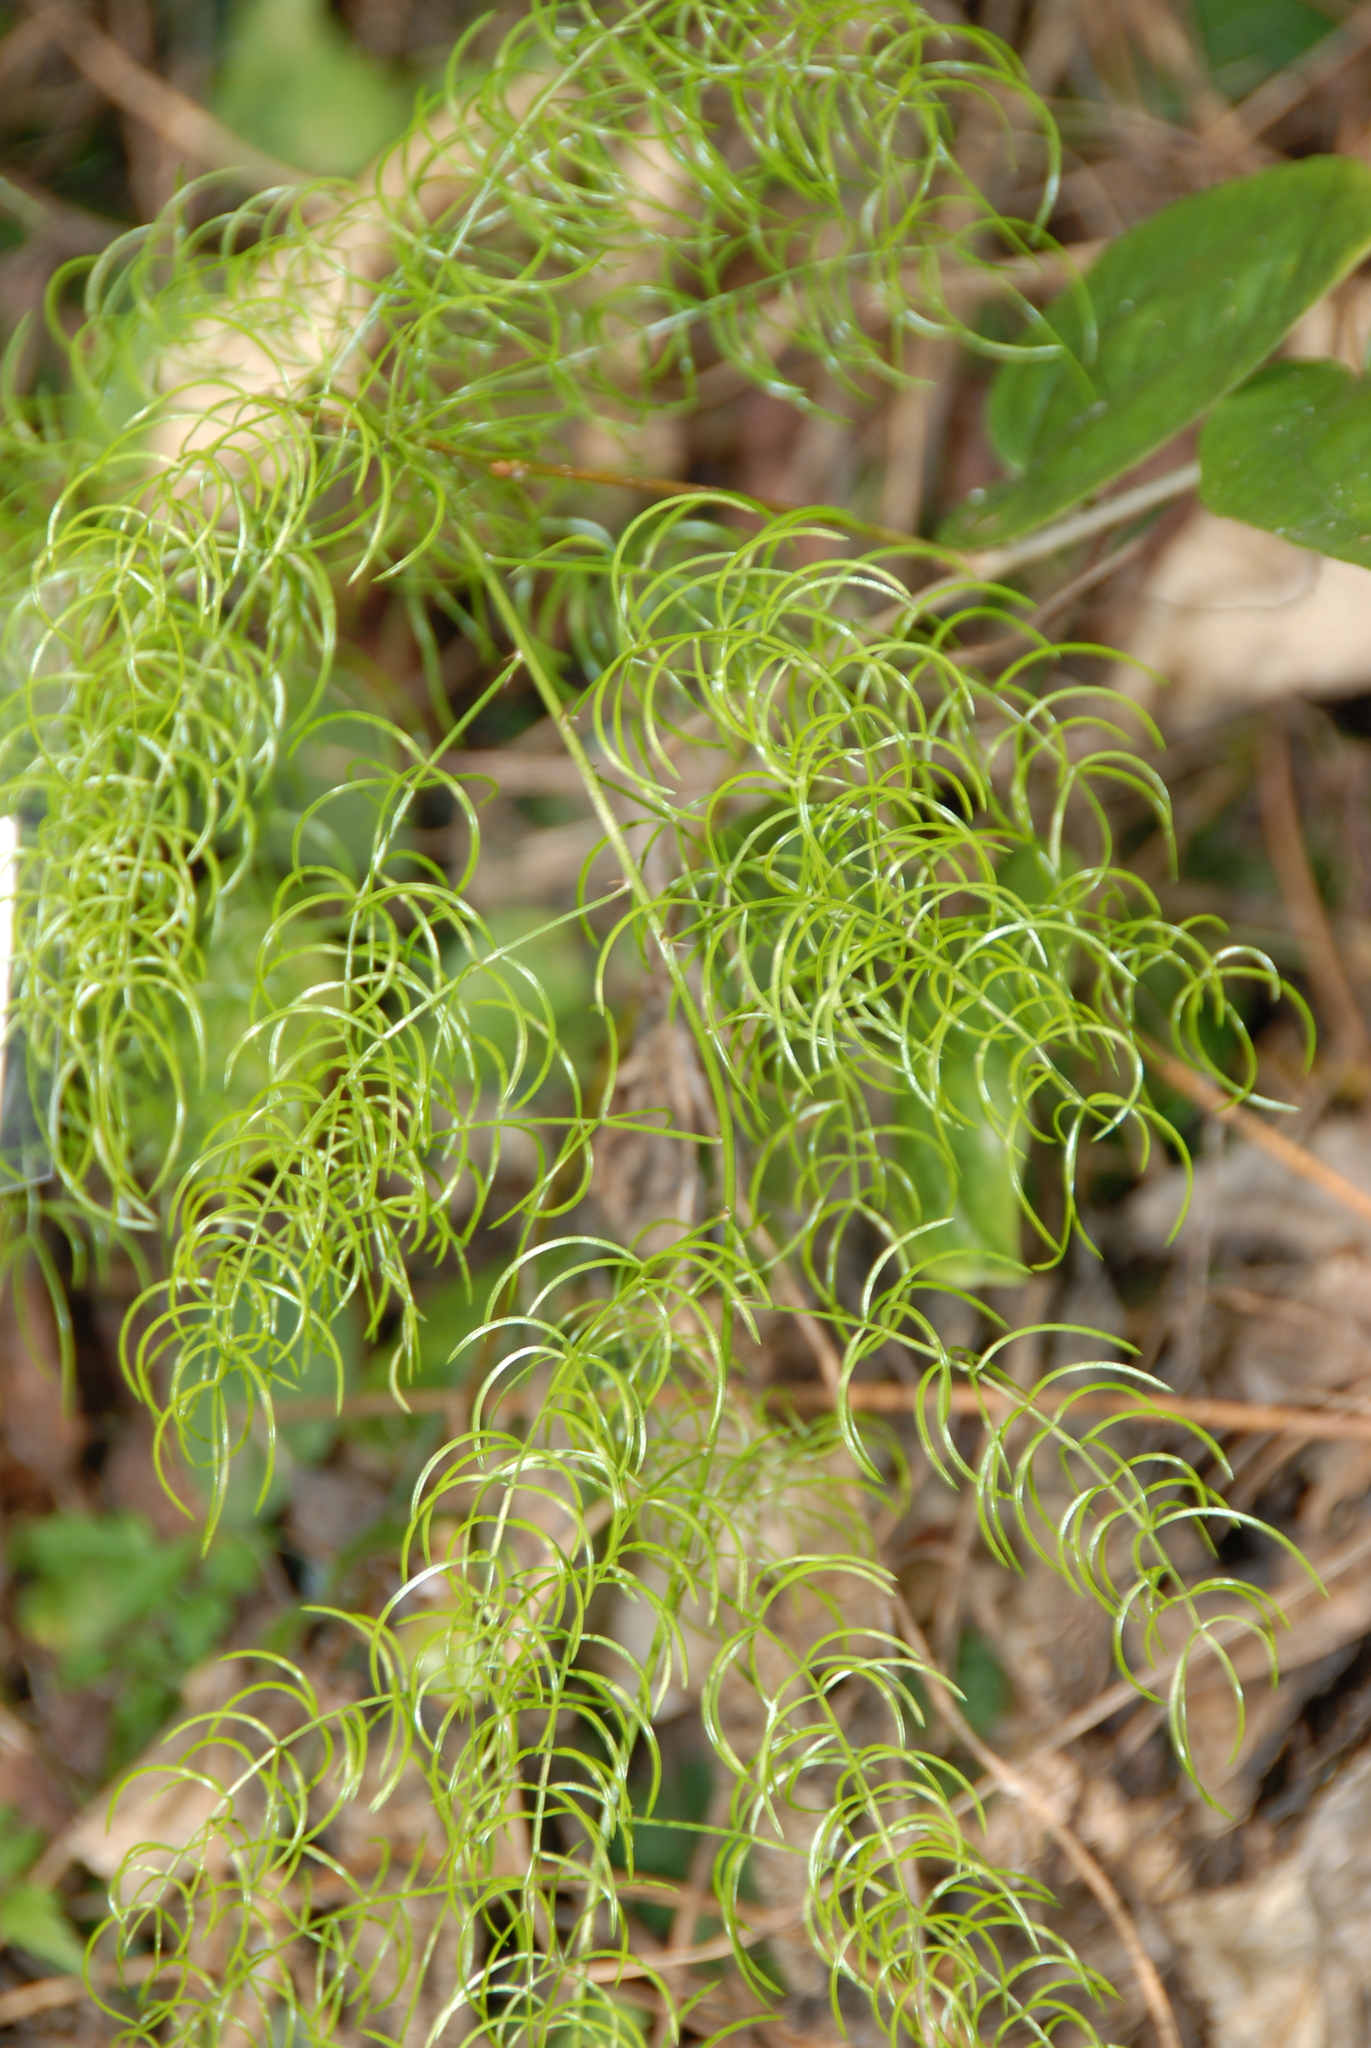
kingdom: Plantae
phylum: Tracheophyta
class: Liliopsida
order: Asparagales
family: Asparagaceae
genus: Asparagus
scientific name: Asparagus cochinchinensis
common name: Chinese asparagus
